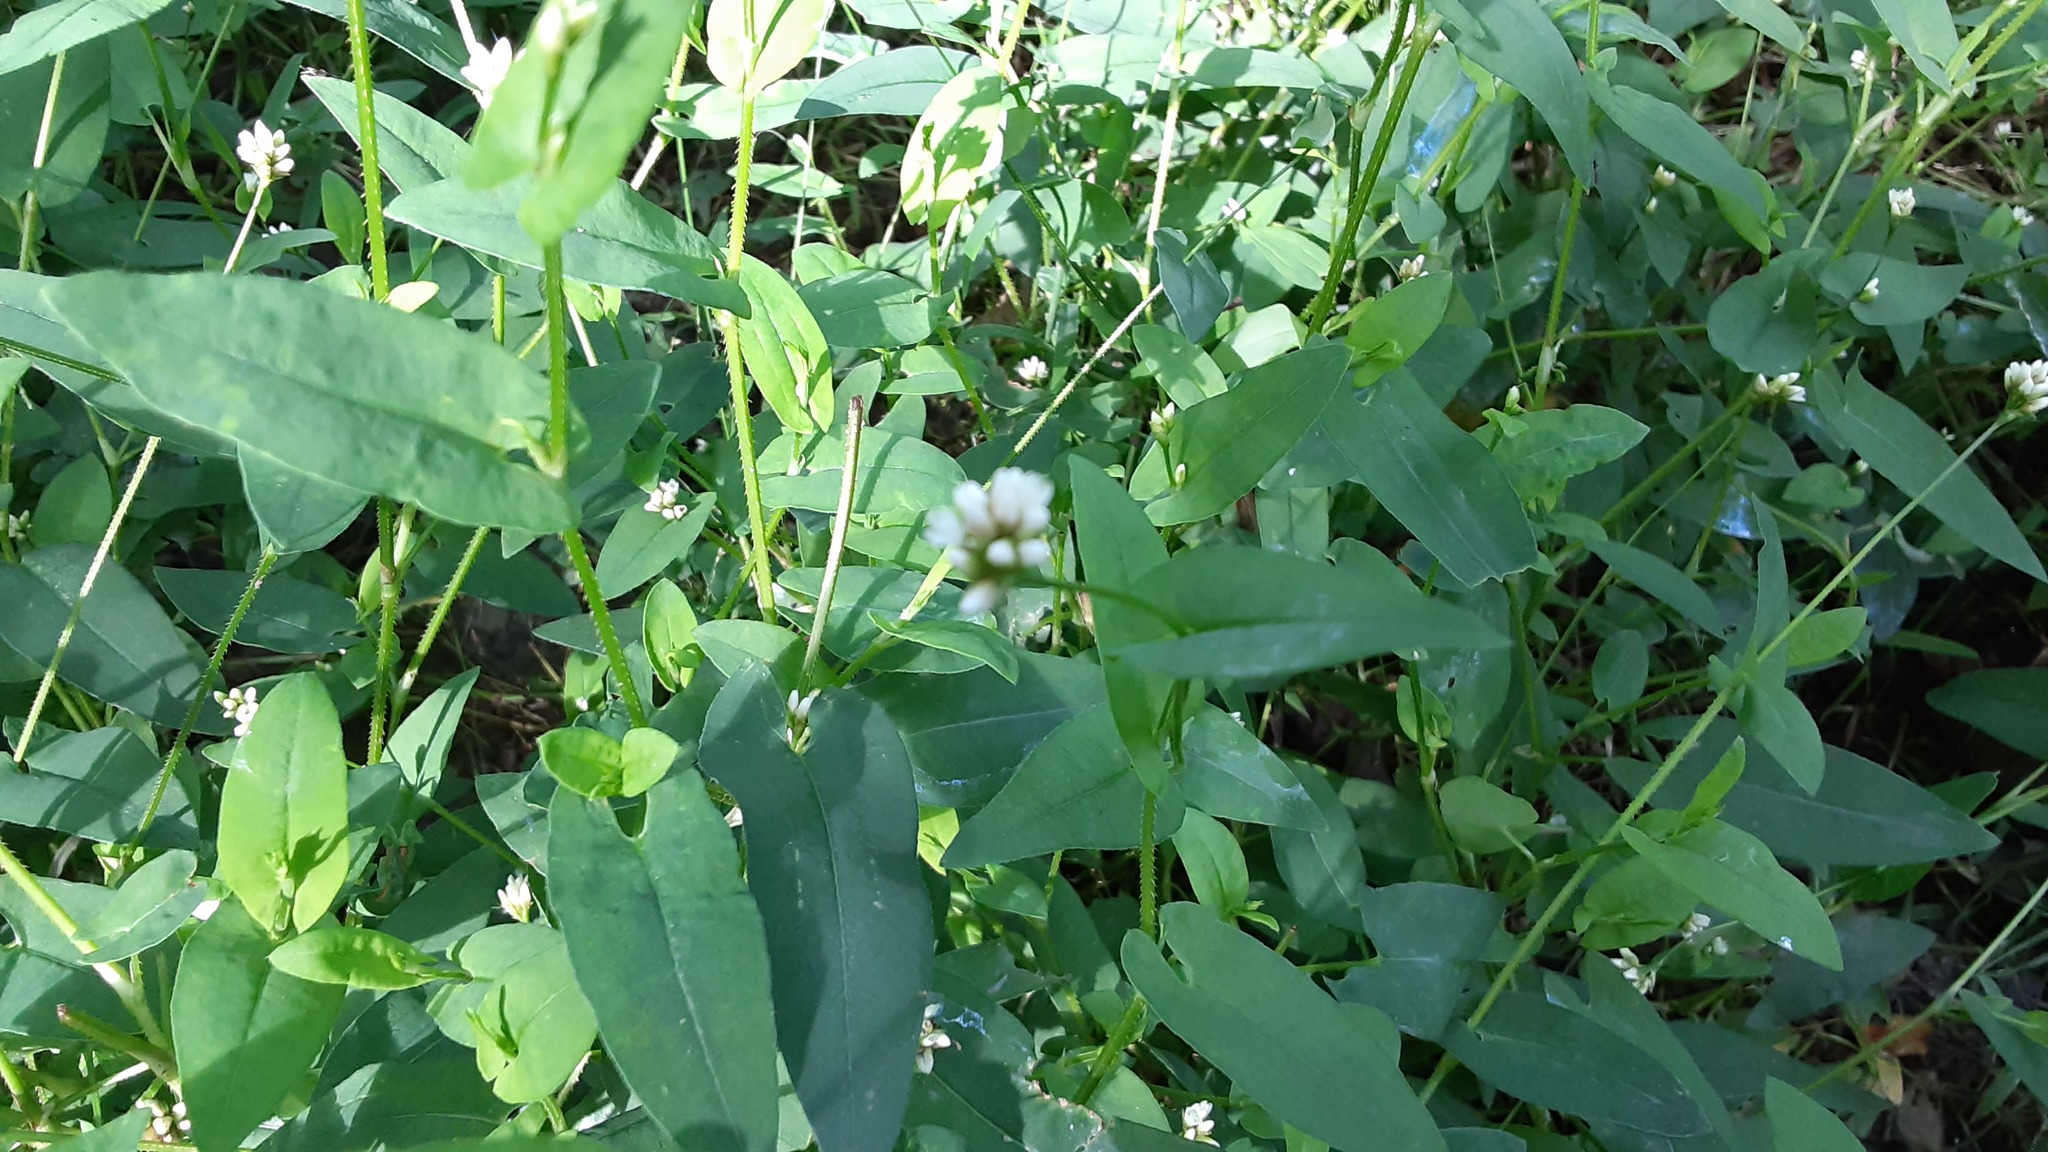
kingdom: Plantae
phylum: Tracheophyta
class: Magnoliopsida
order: Caryophyllales
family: Polygonaceae
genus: Persicaria
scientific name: Persicaria sagittata
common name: American tearthumb
